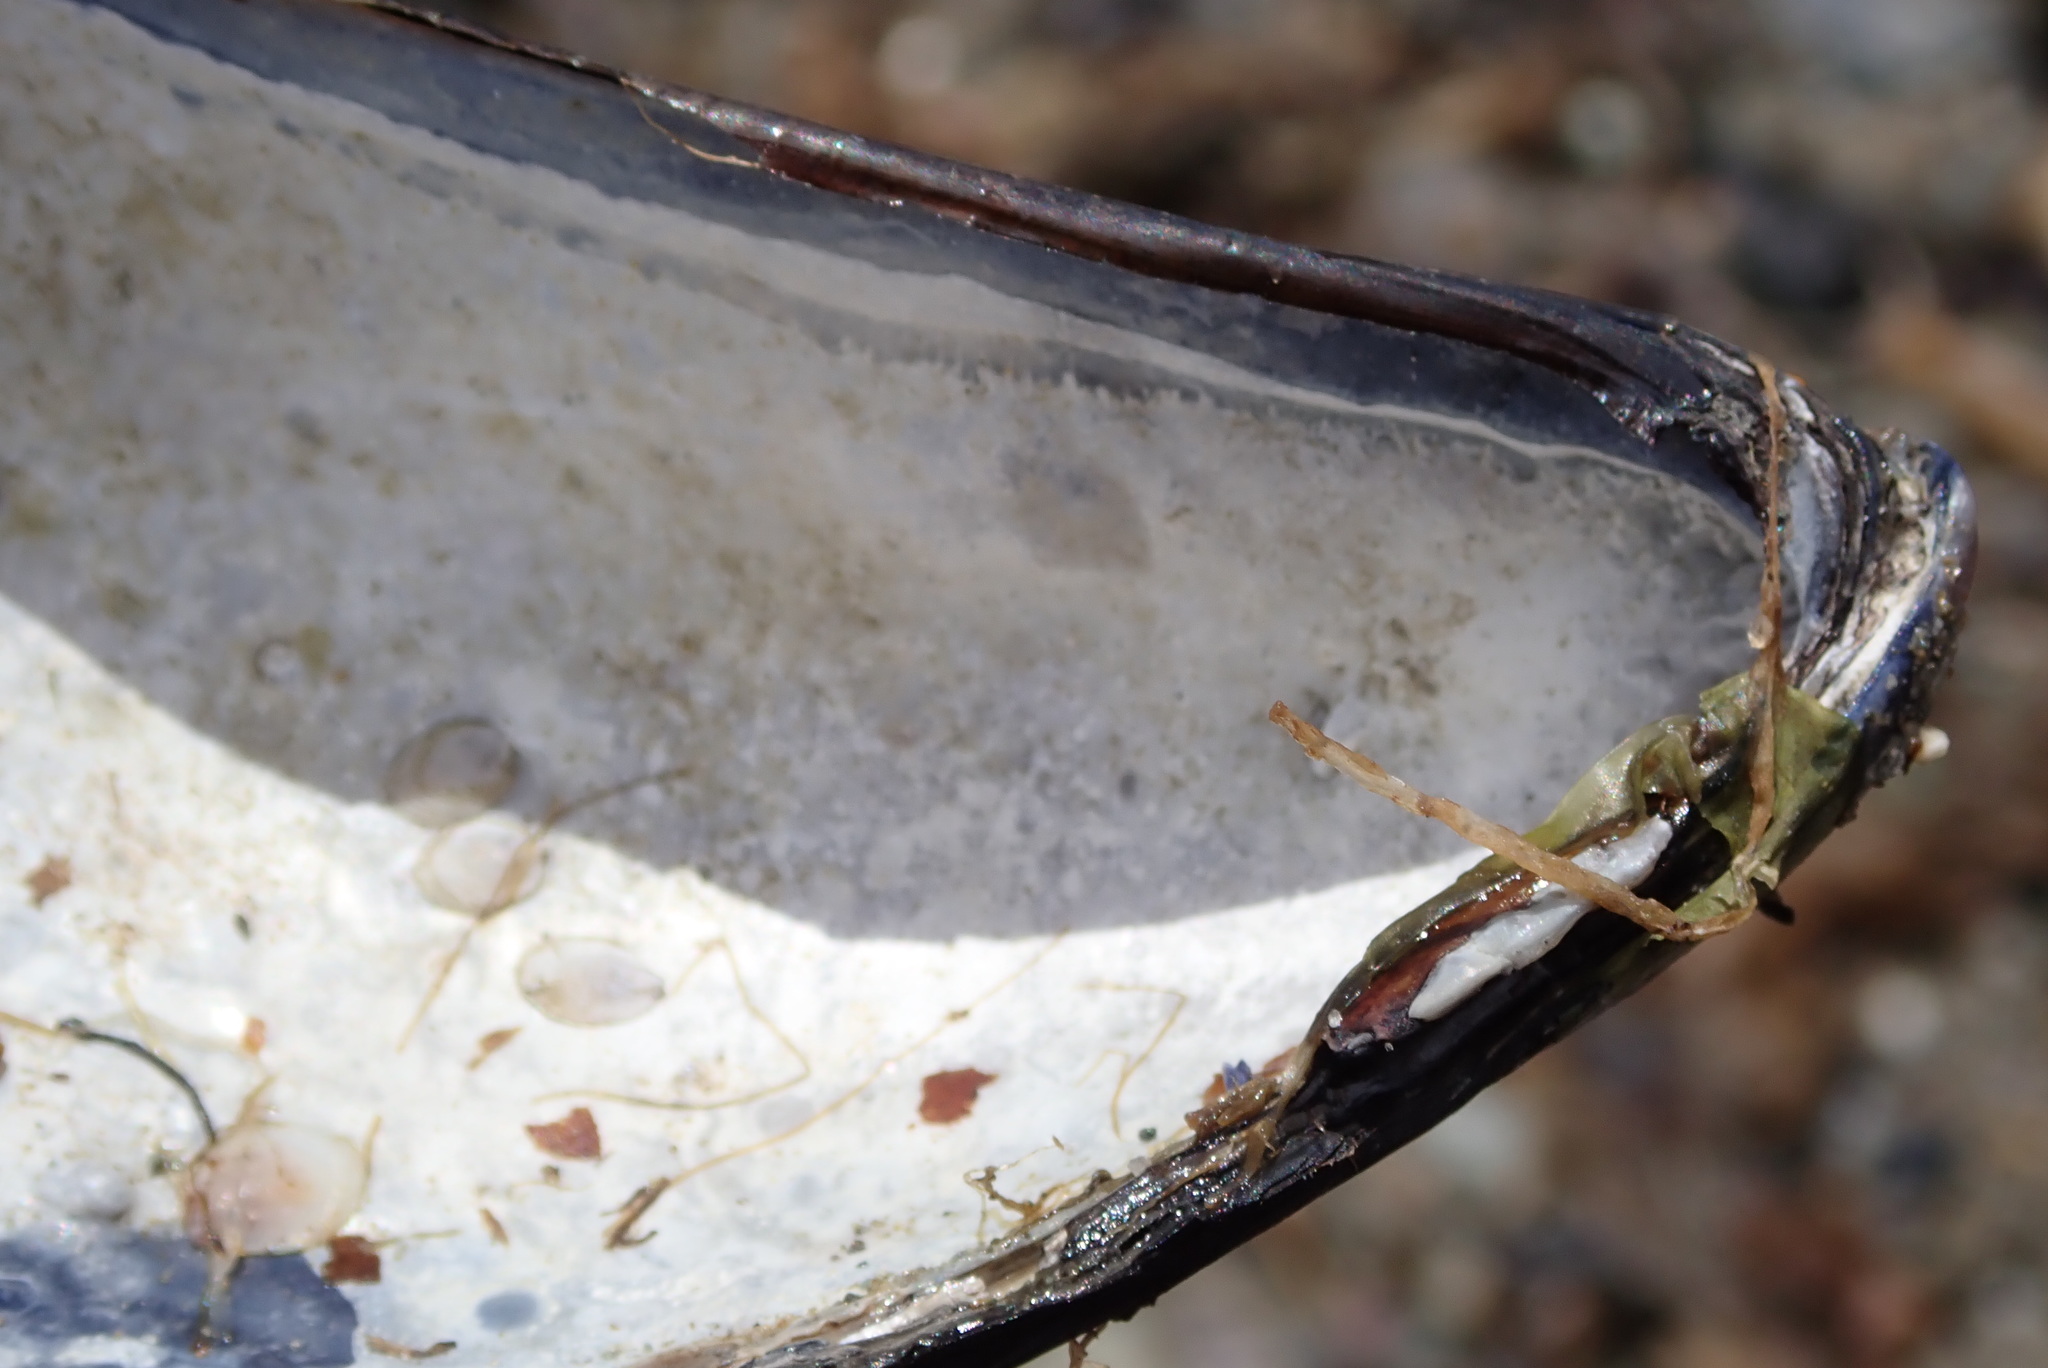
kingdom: Animalia
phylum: Mollusca
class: Bivalvia
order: Mytilida
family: Mytilidae
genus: Mytilus
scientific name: Mytilus edulis
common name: Blue mussel
